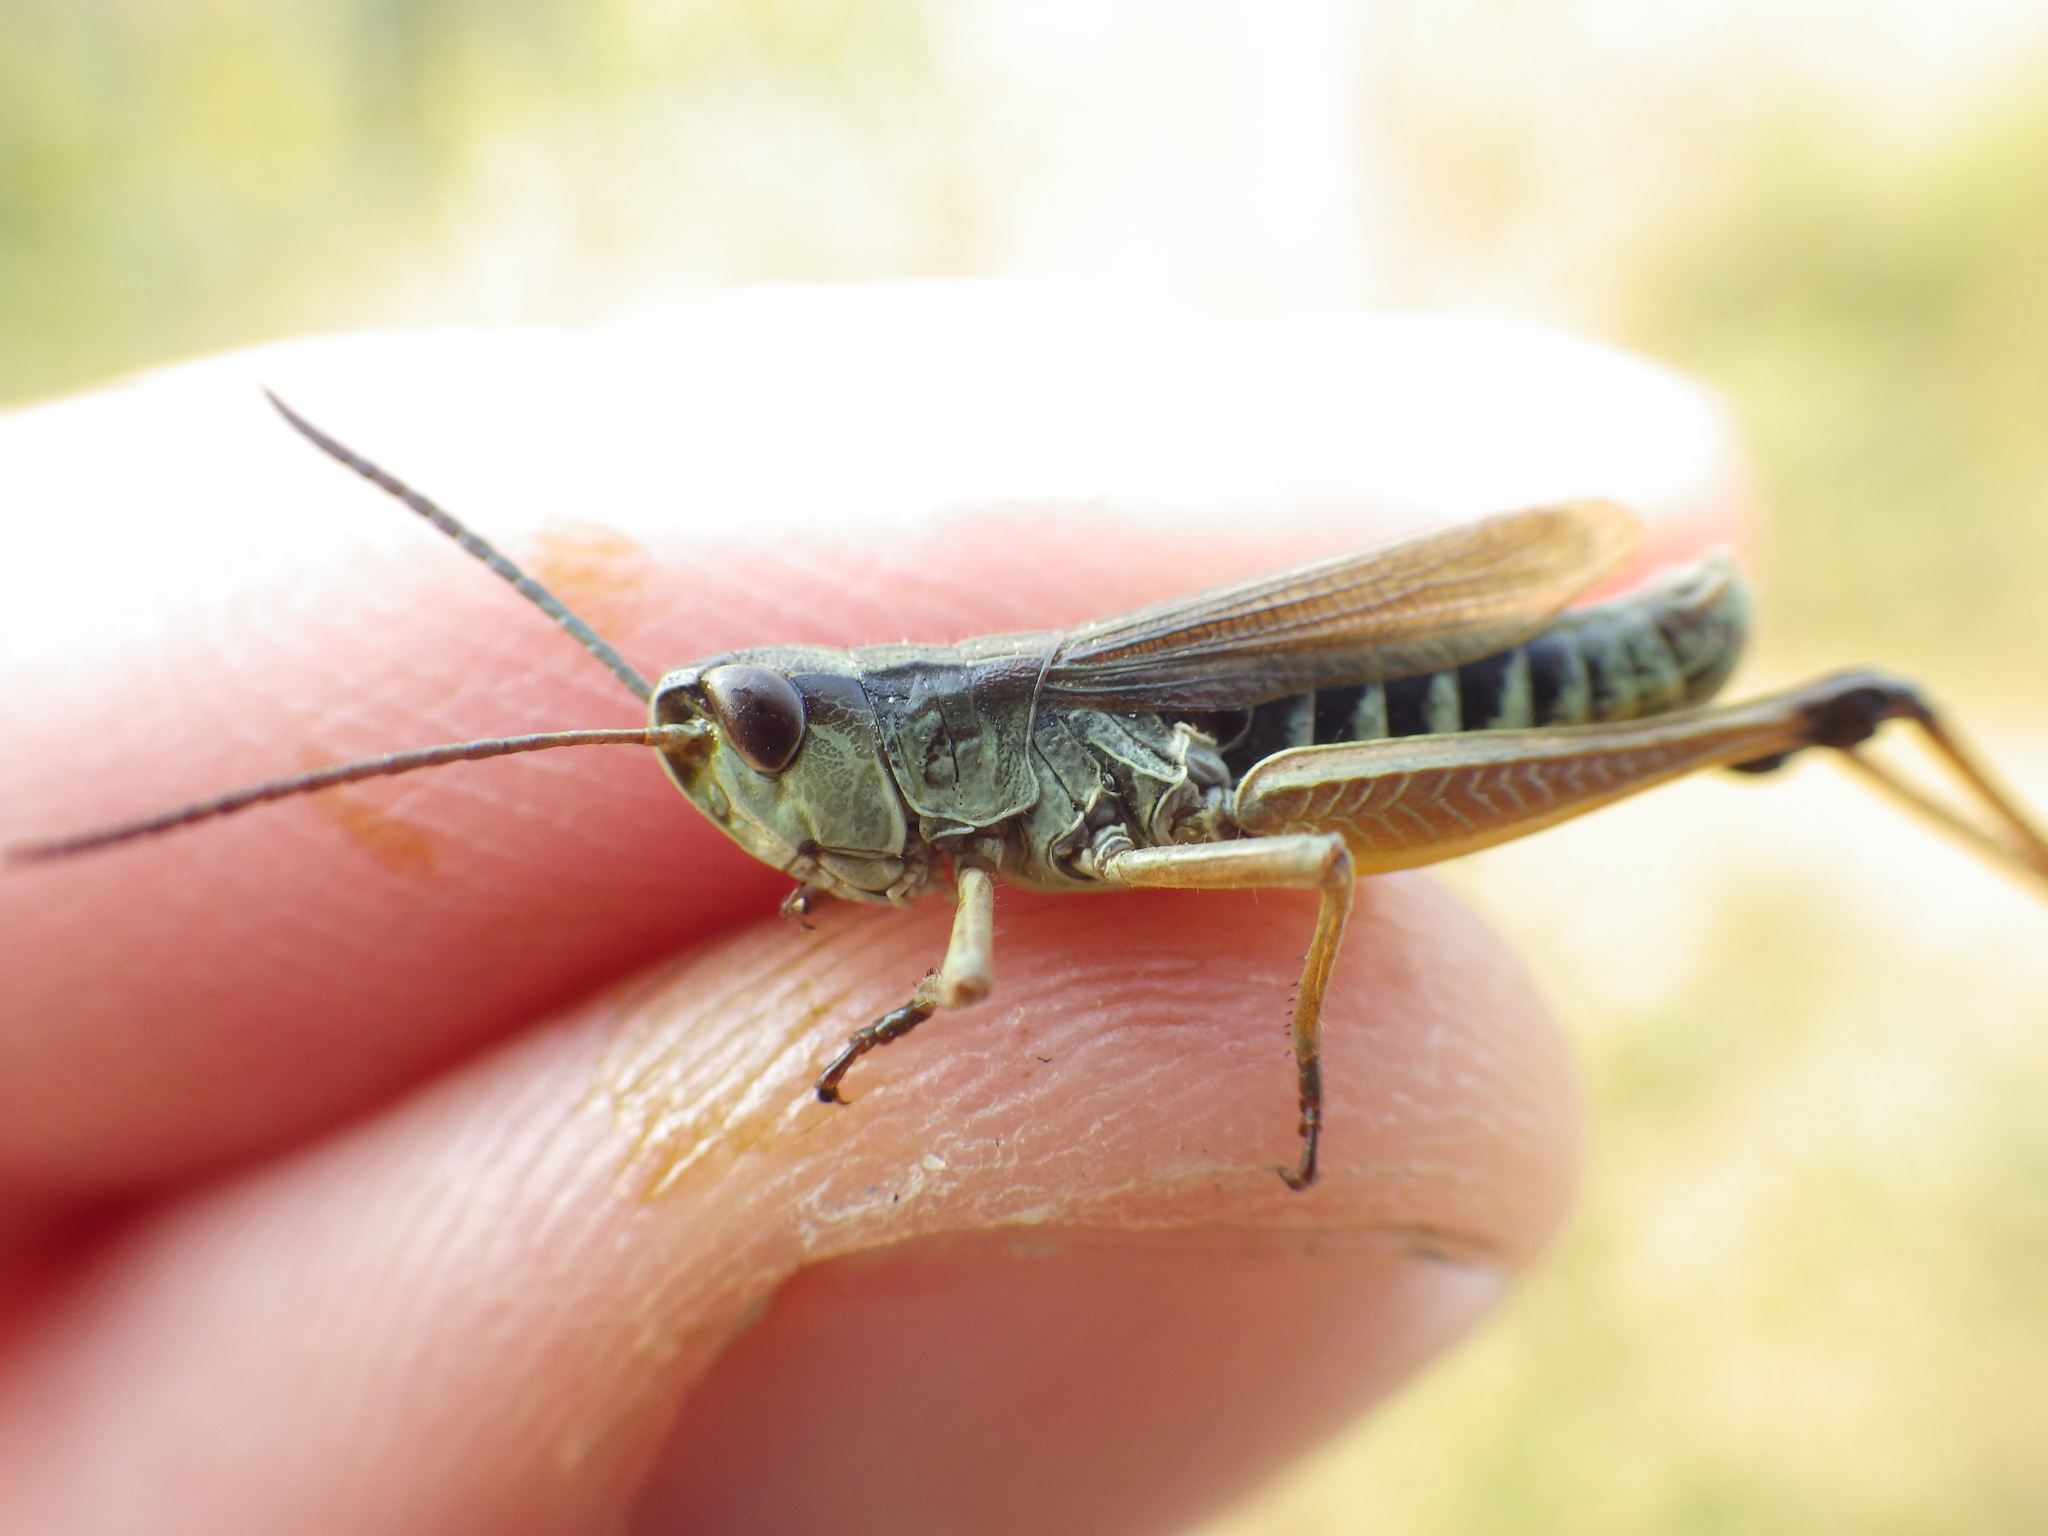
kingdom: Animalia
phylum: Arthropoda
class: Insecta
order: Orthoptera
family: Acrididae
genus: Pseudochorthippus
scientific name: Pseudochorthippus curtipennis
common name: Marsh meadow grasshopper
